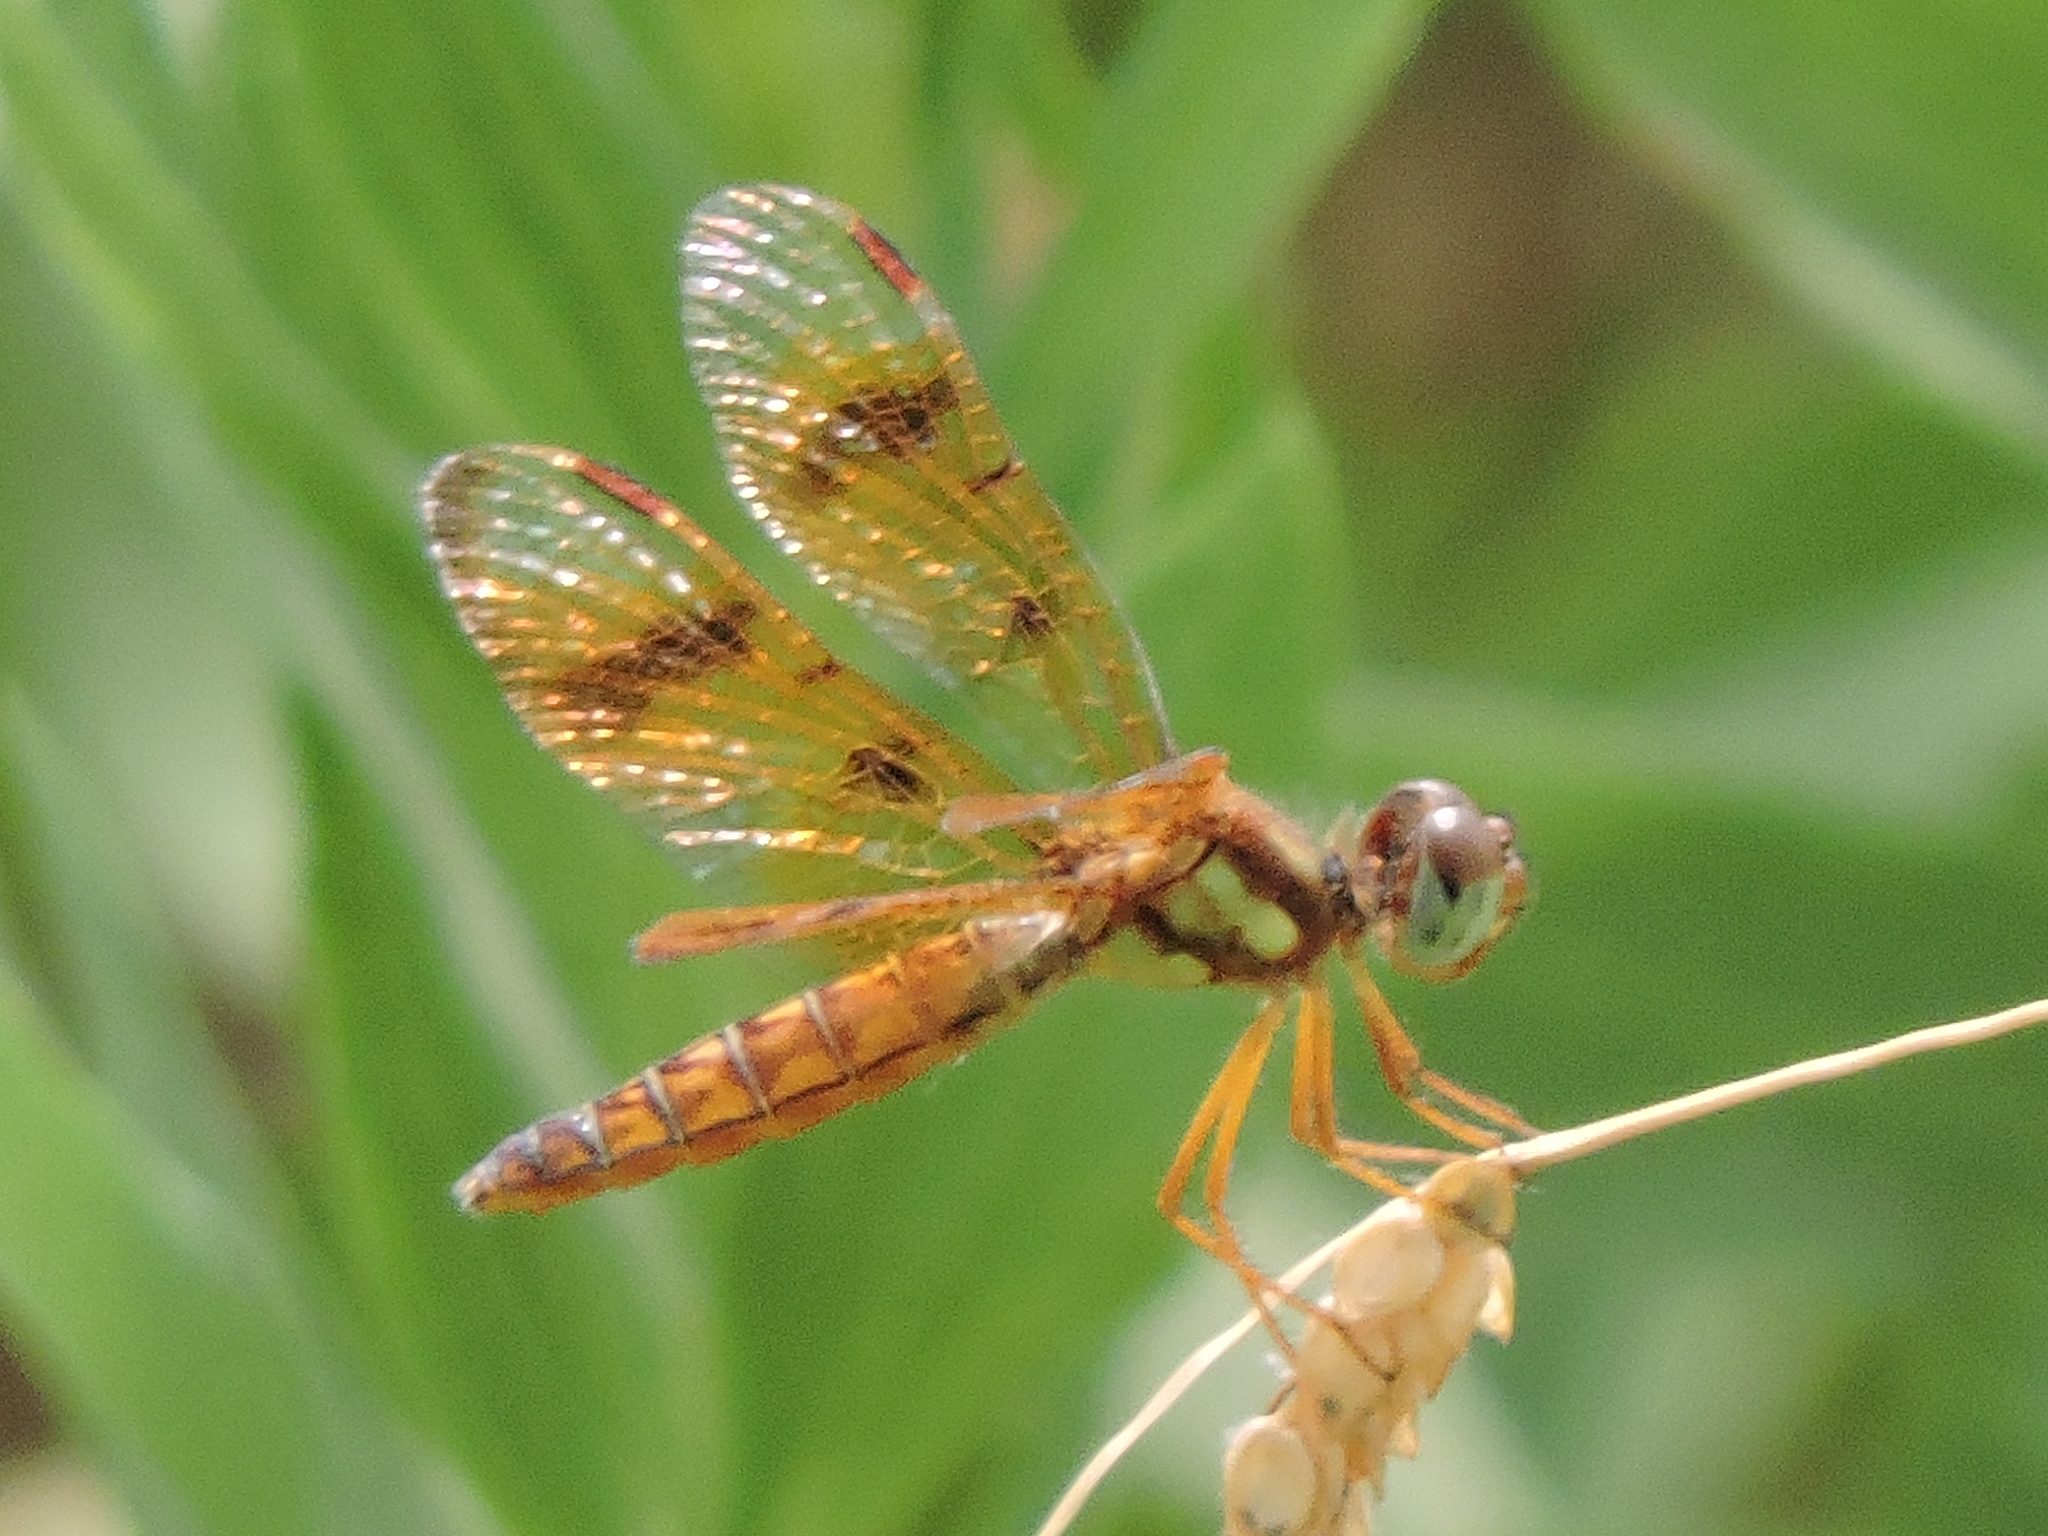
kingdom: Animalia
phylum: Arthropoda
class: Insecta
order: Odonata
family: Libellulidae
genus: Perithemis
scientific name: Perithemis tenera
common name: Eastern amberwing
